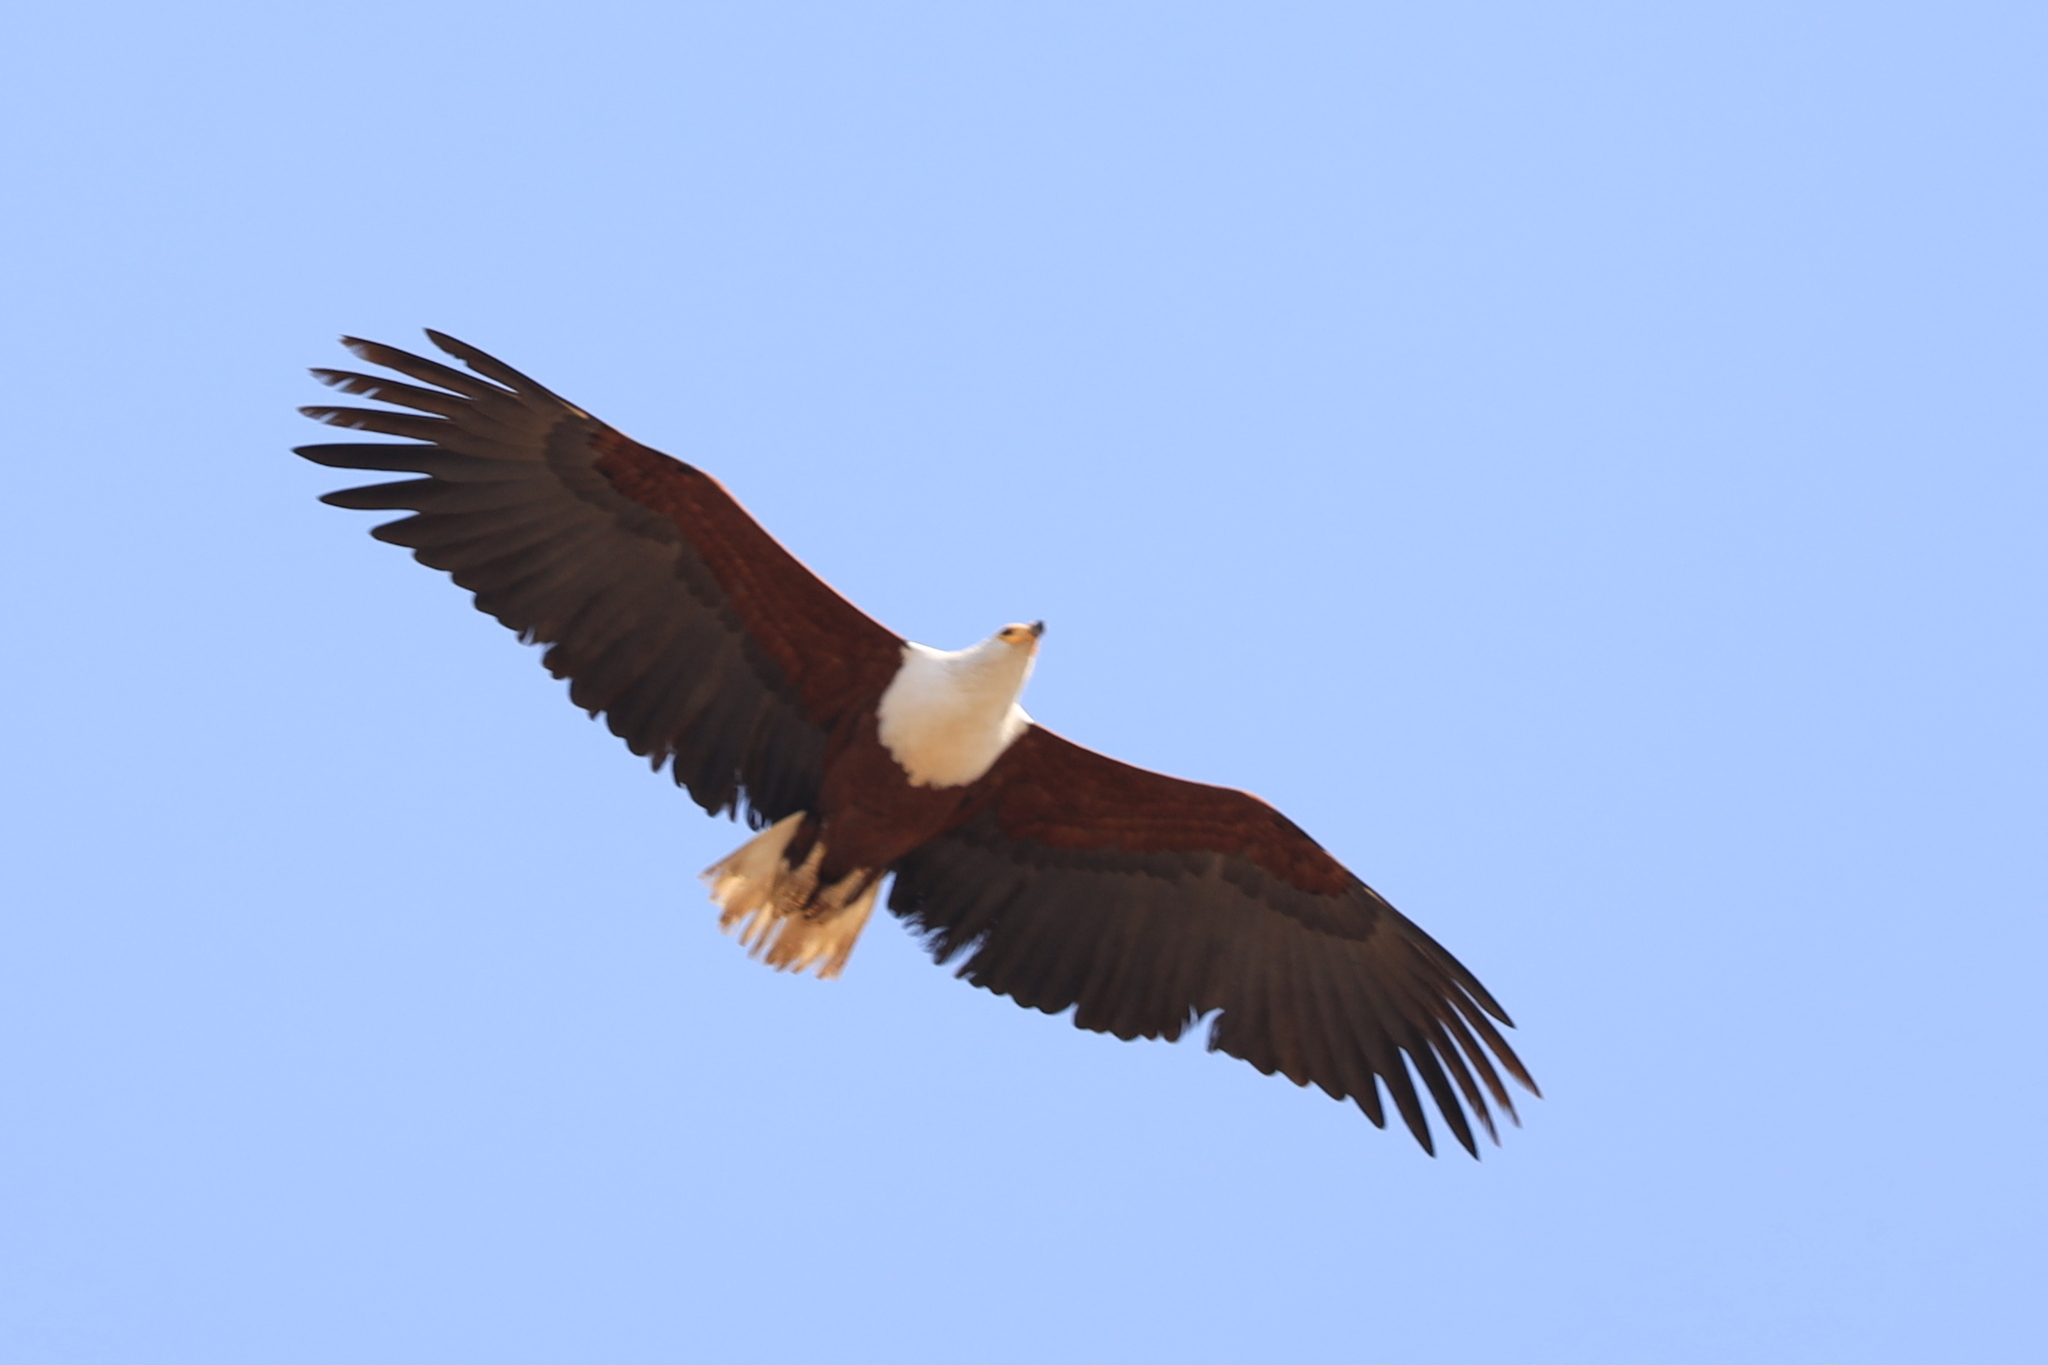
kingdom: Animalia
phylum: Chordata
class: Aves
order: Accipitriformes
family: Accipitridae
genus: Haliaeetus
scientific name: Haliaeetus vocifer
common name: African fish eagle
